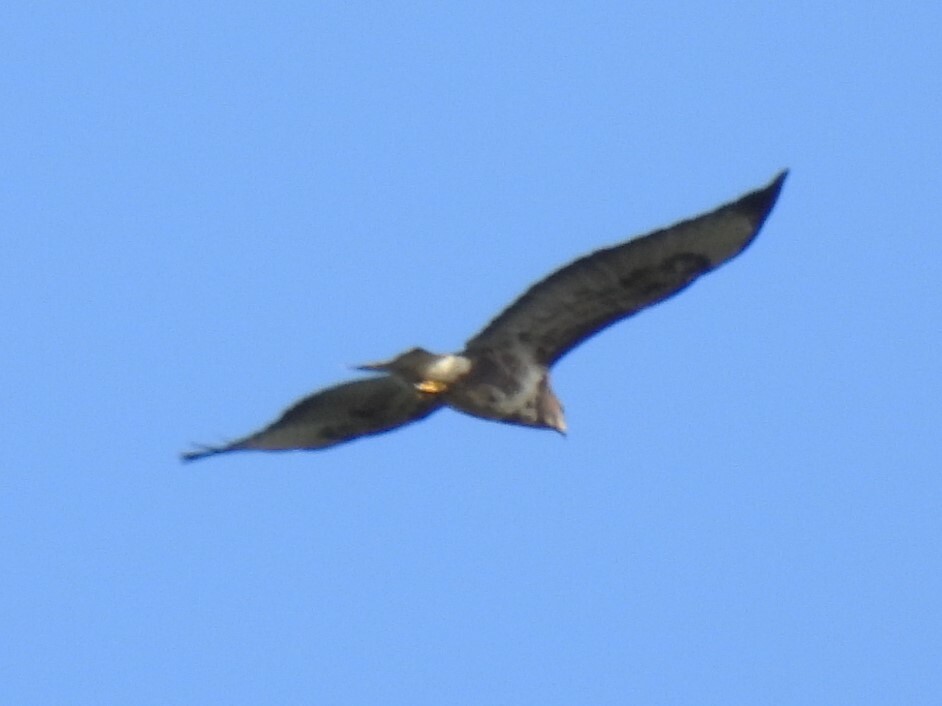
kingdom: Animalia
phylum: Chordata
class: Aves
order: Accipitriformes
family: Accipitridae
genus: Buteo
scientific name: Buteo buteo
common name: Common buzzard
